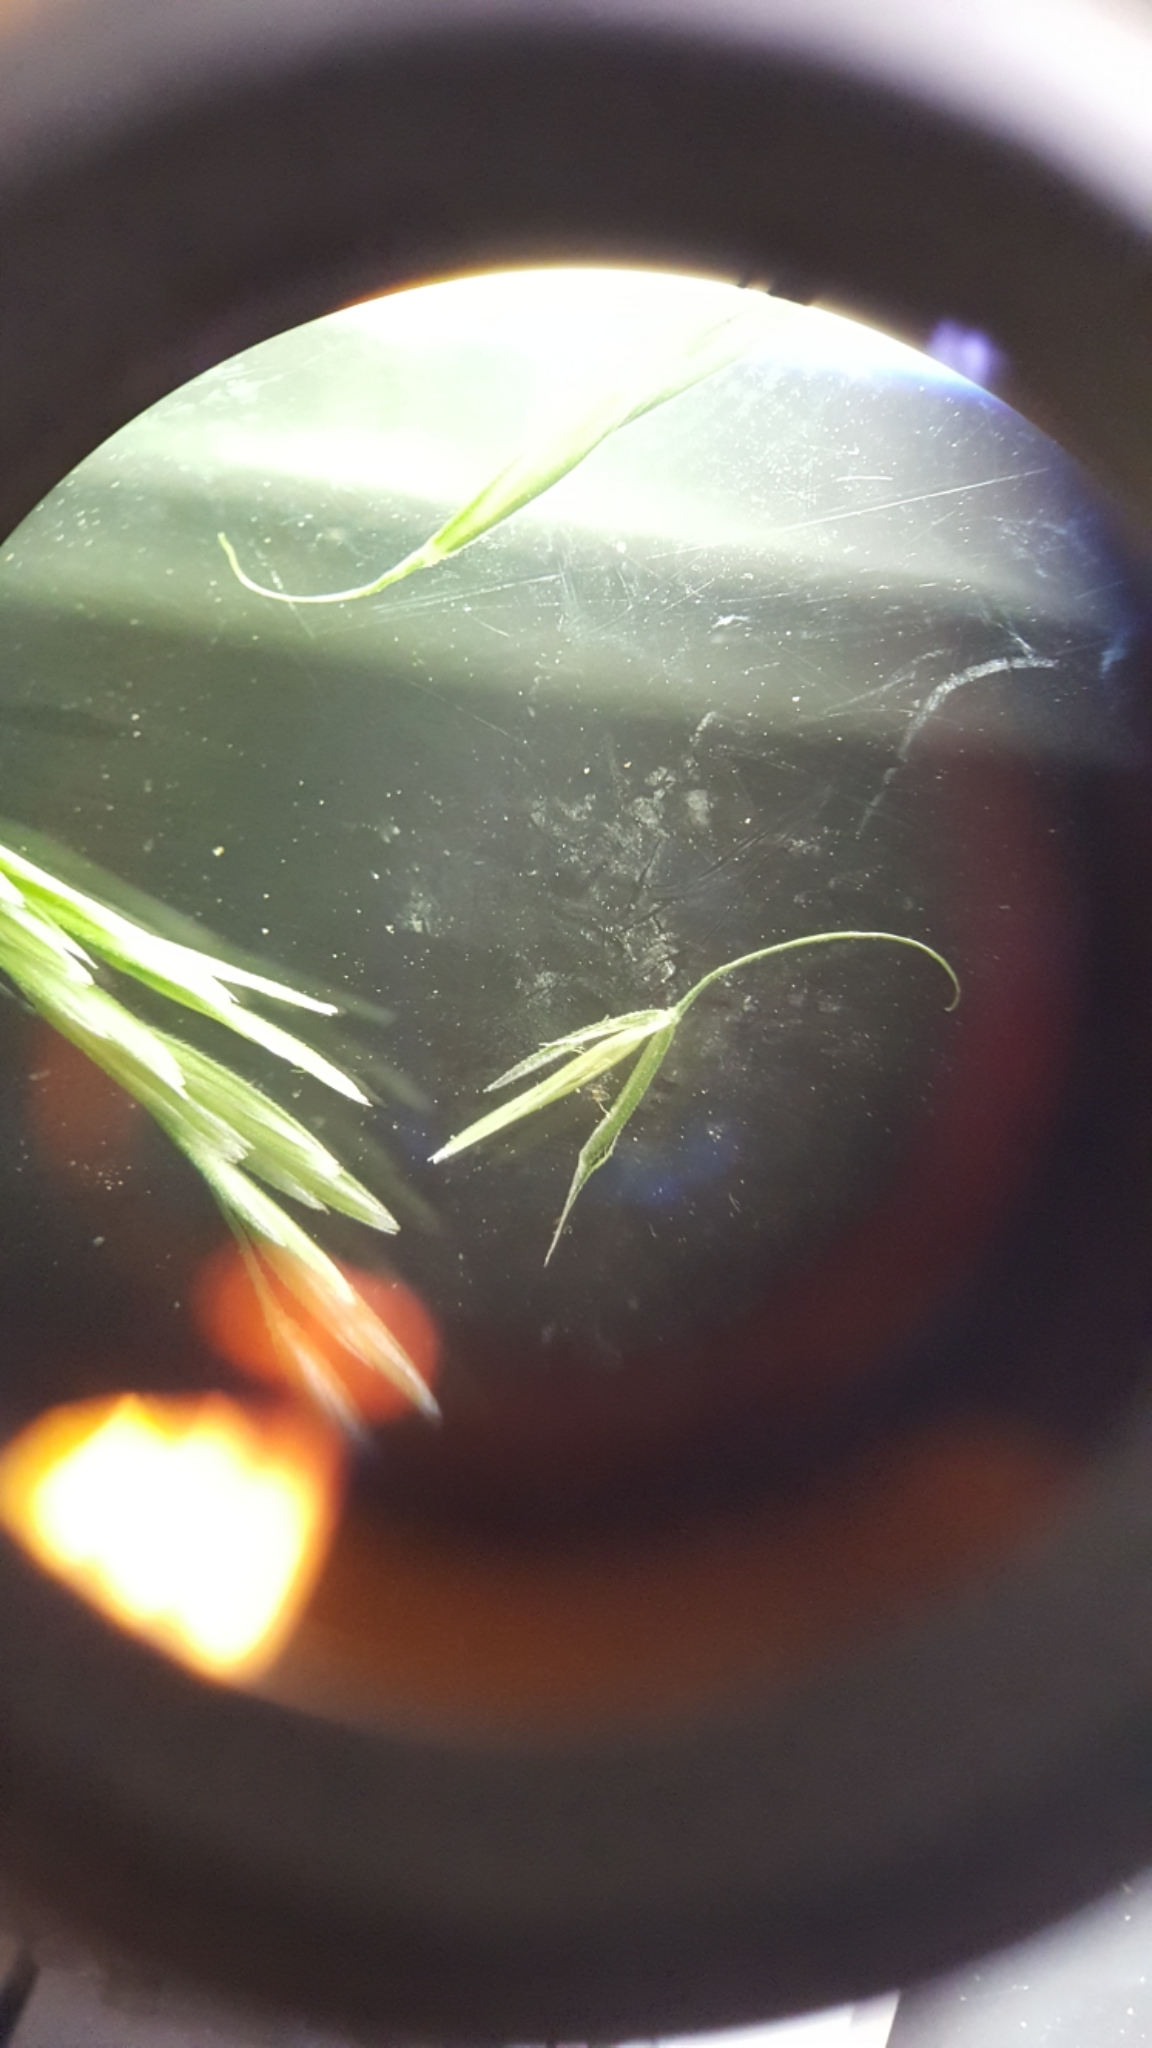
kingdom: Plantae
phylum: Tracheophyta
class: Liliopsida
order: Poales
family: Poaceae
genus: Cinna
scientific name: Cinna arundinacea
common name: Stout woodreed
